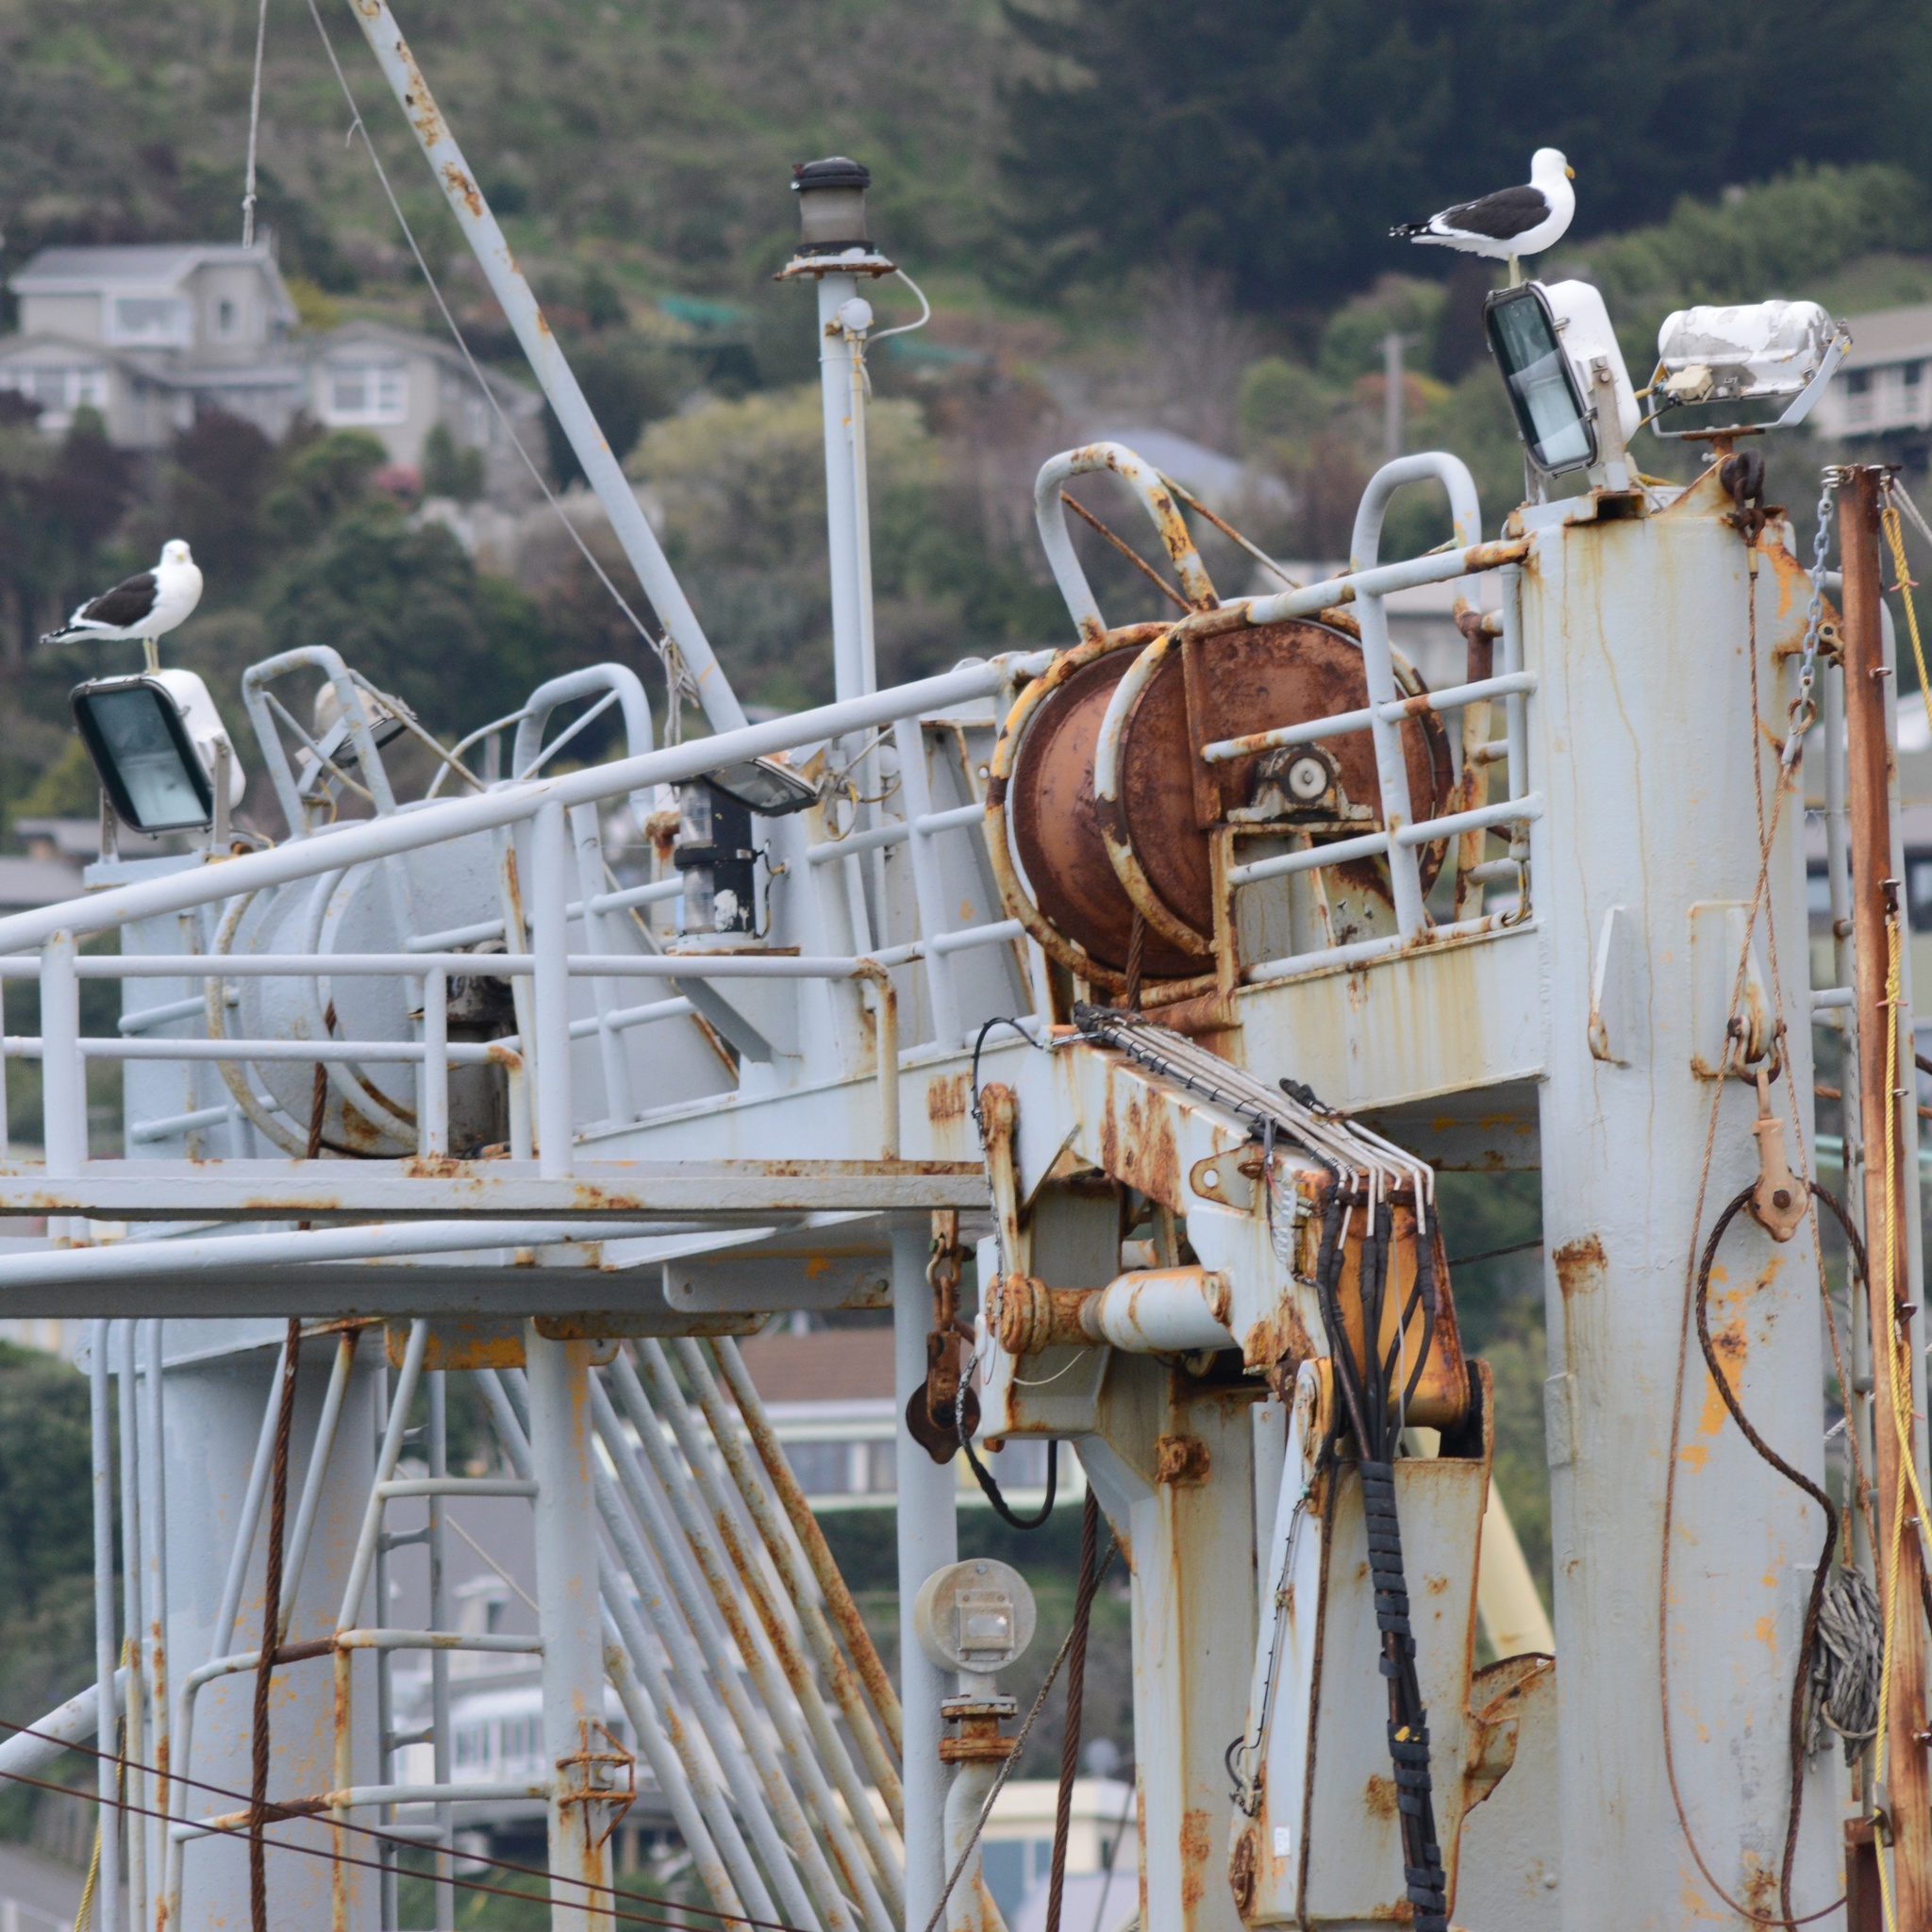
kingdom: Animalia
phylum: Chordata
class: Aves
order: Charadriiformes
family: Laridae
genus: Larus
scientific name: Larus dominicanus
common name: Kelp gull
